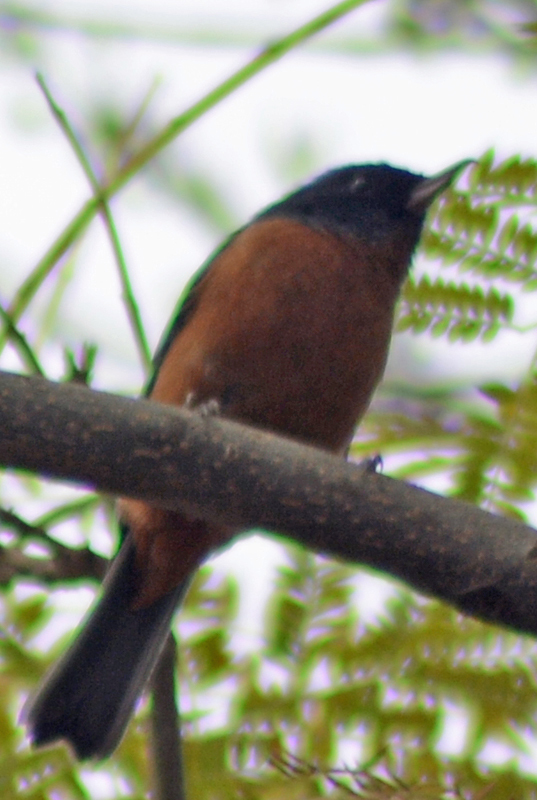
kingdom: Animalia
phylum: Chordata
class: Aves
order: Passeriformes
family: Thraupidae
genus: Diglossa
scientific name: Diglossa baritula
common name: Cinnamon-bellied flowerpiercer
